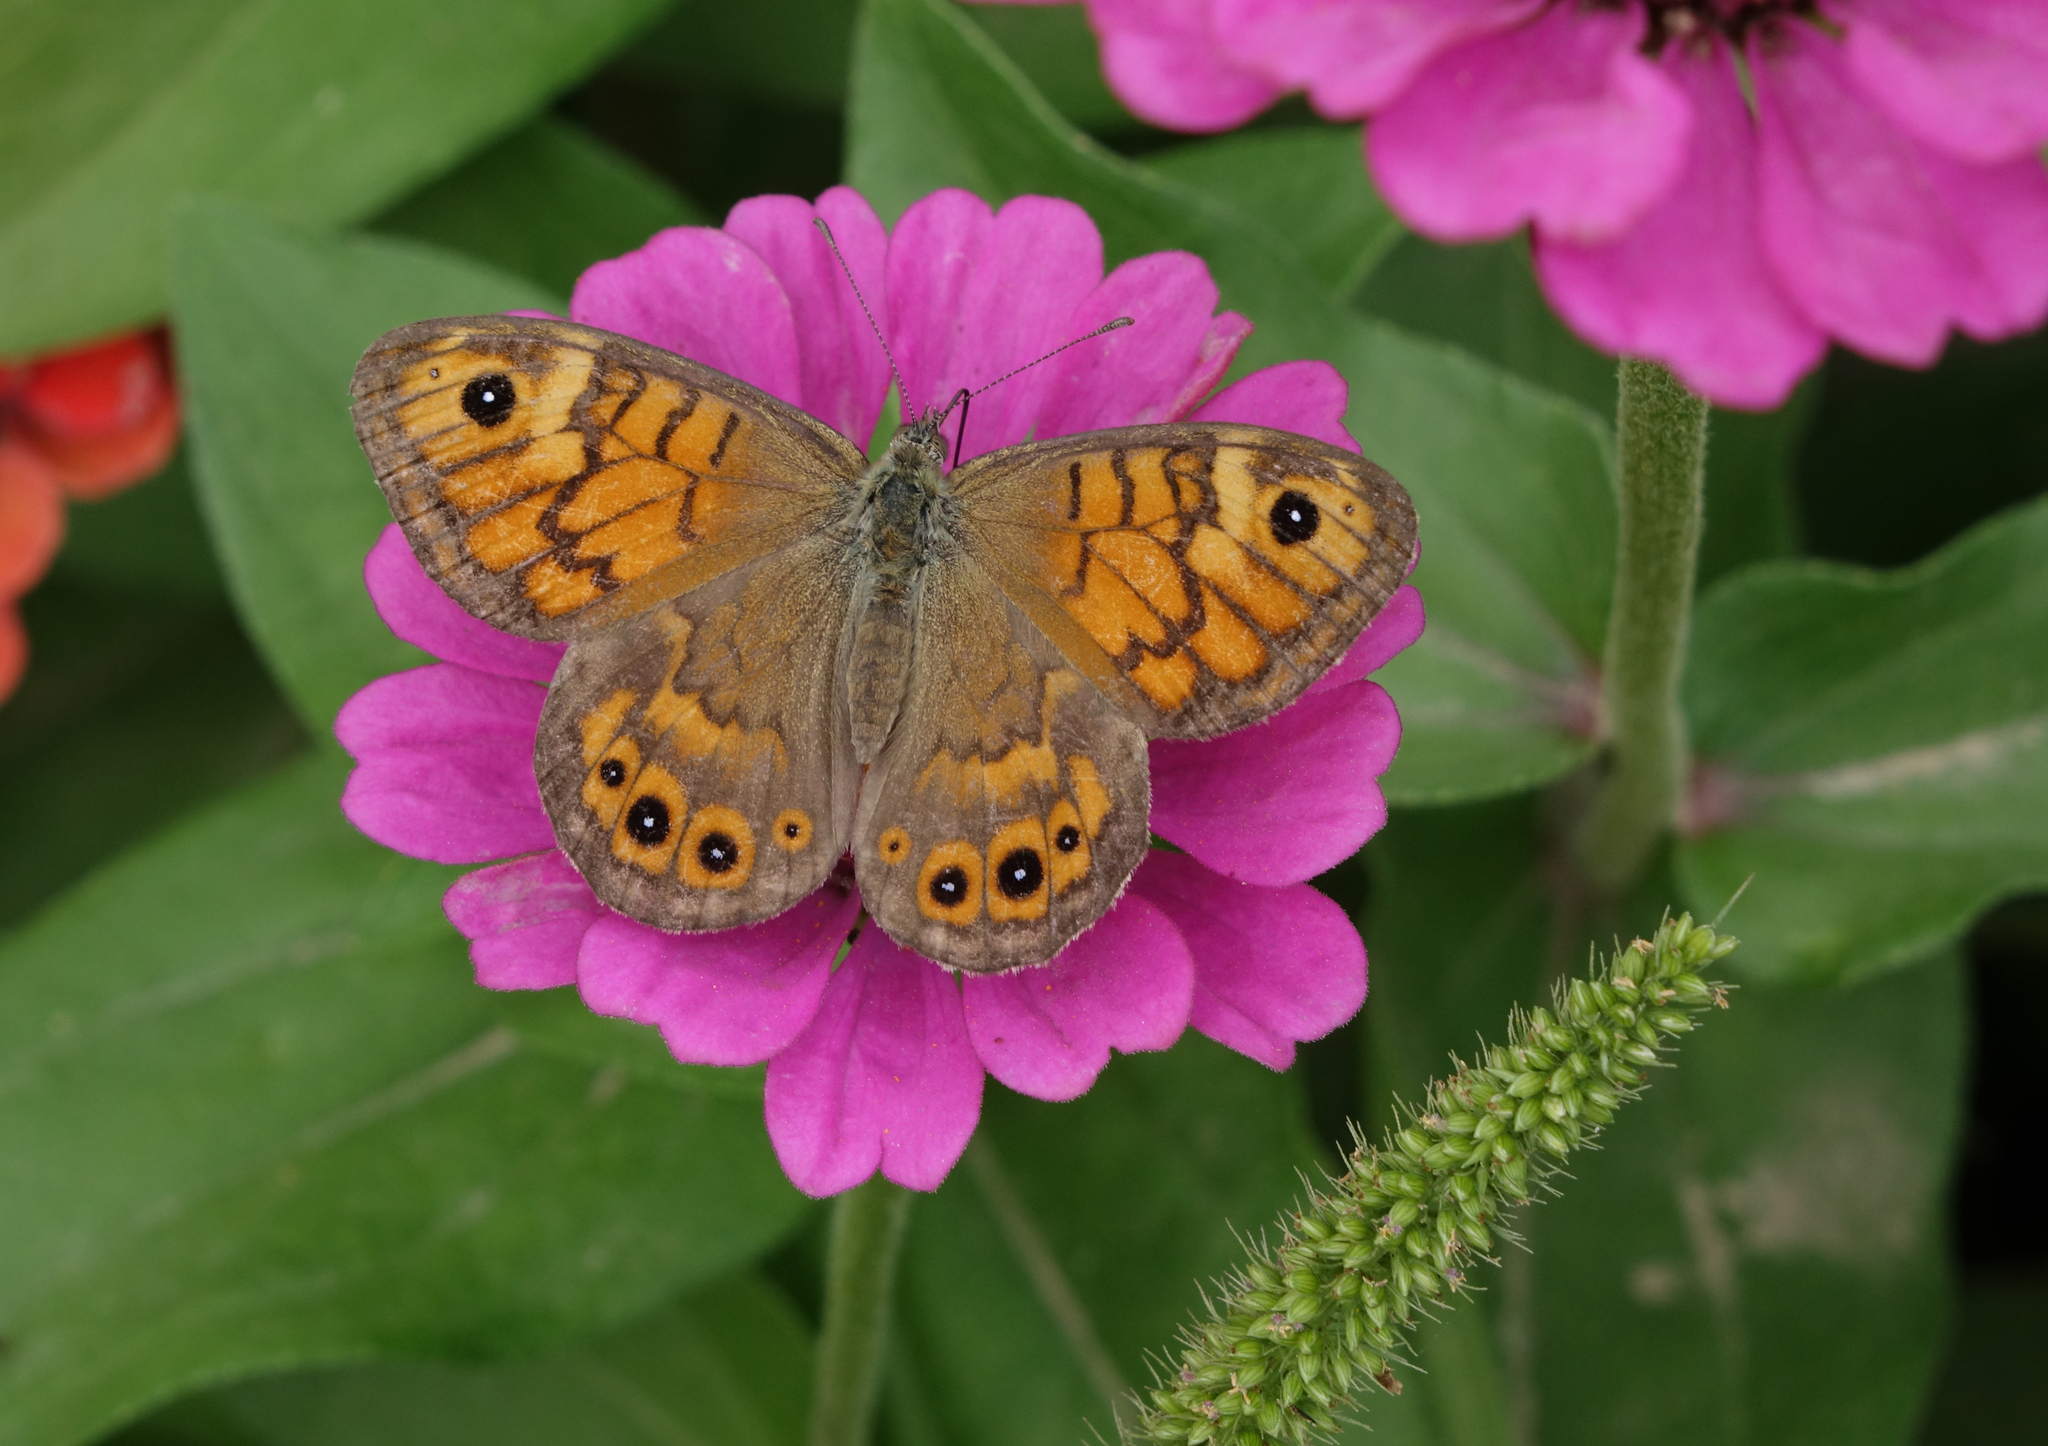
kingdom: Animalia
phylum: Arthropoda
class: Insecta
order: Lepidoptera
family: Nymphalidae
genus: Pararge
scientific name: Pararge Lasiommata megera
